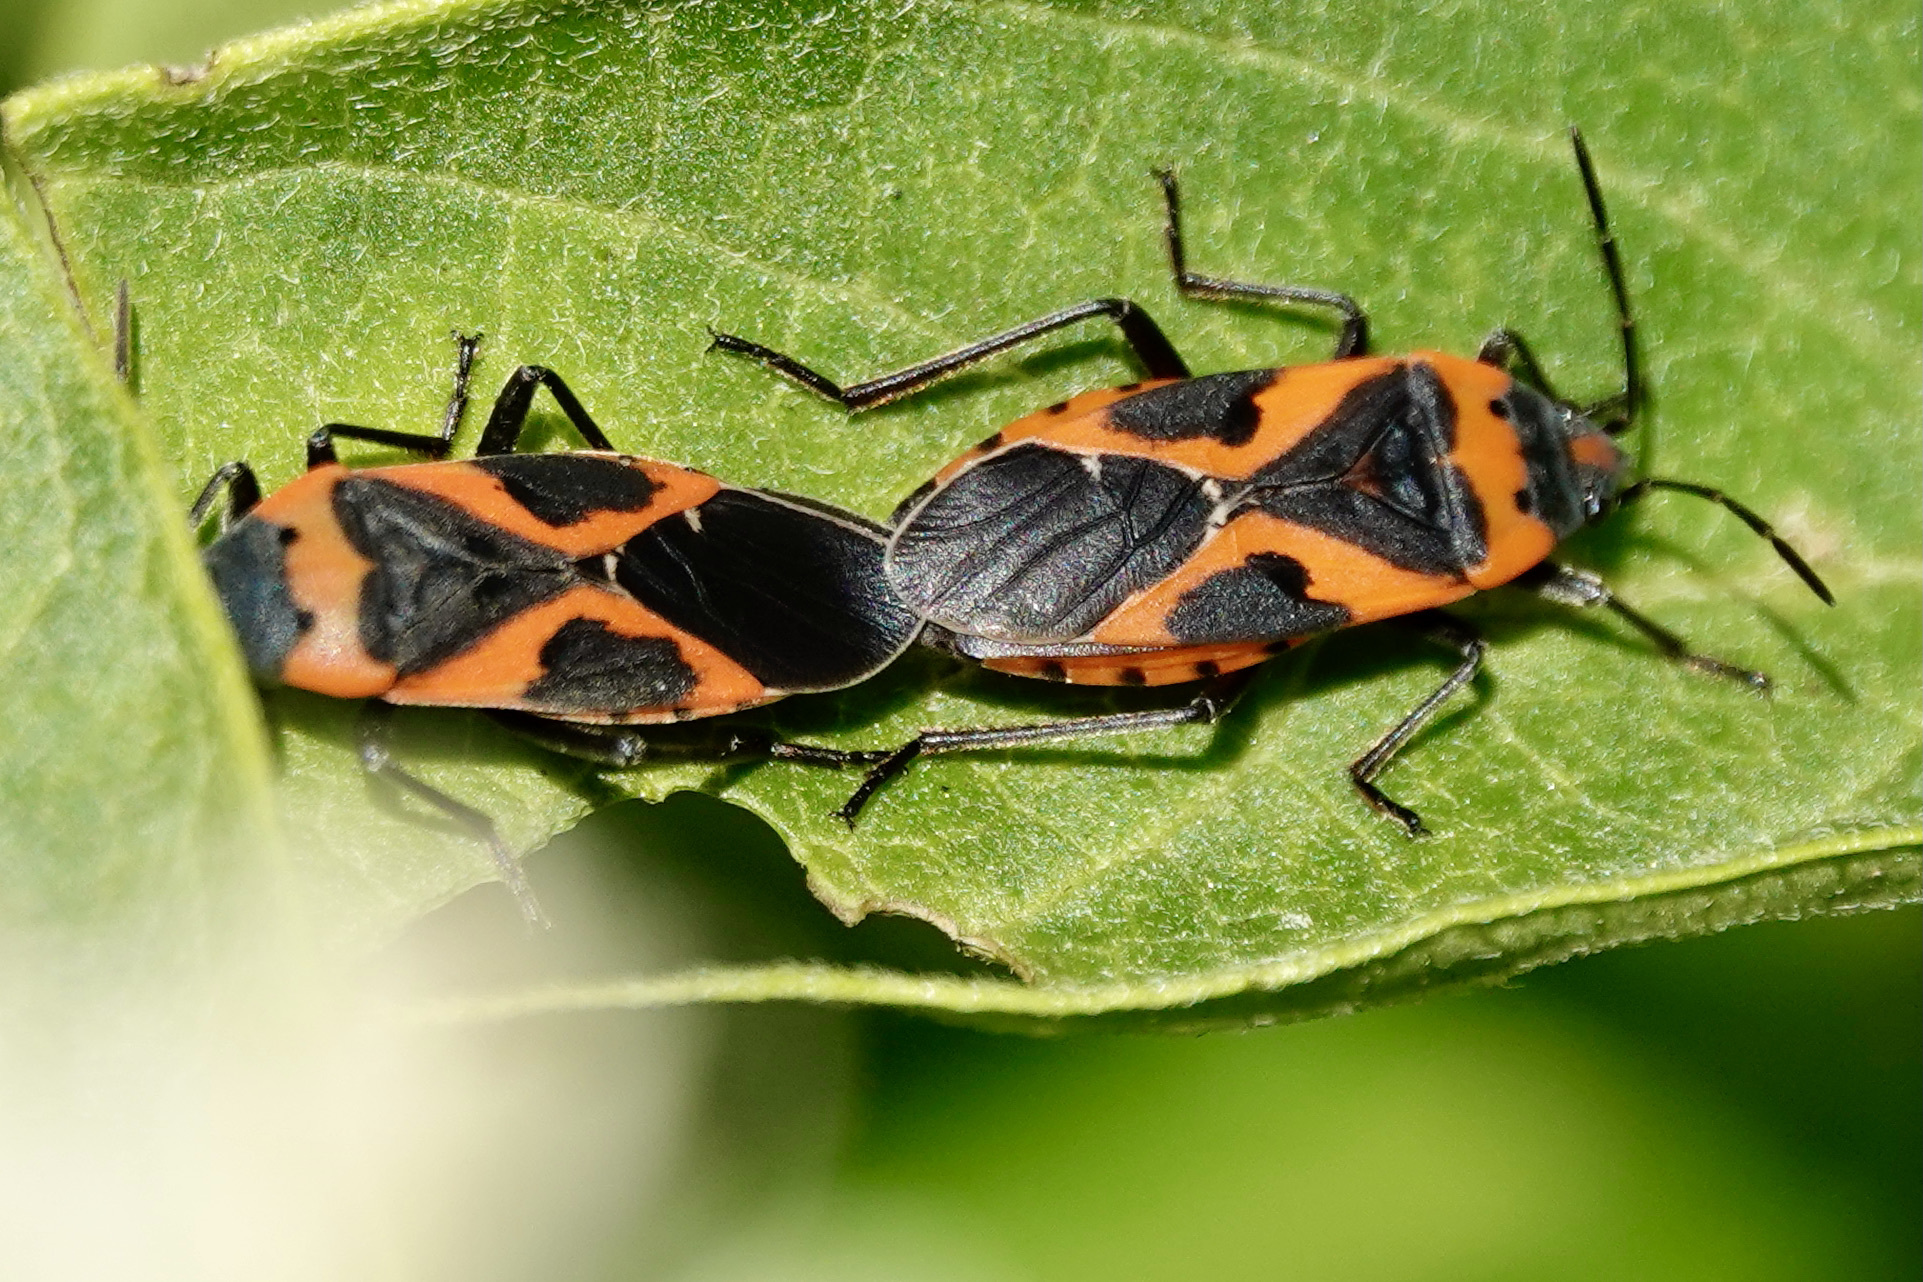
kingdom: Animalia
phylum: Arthropoda
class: Insecta
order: Hemiptera
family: Lygaeidae
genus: Lygaeus
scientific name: Lygaeus kalmii
